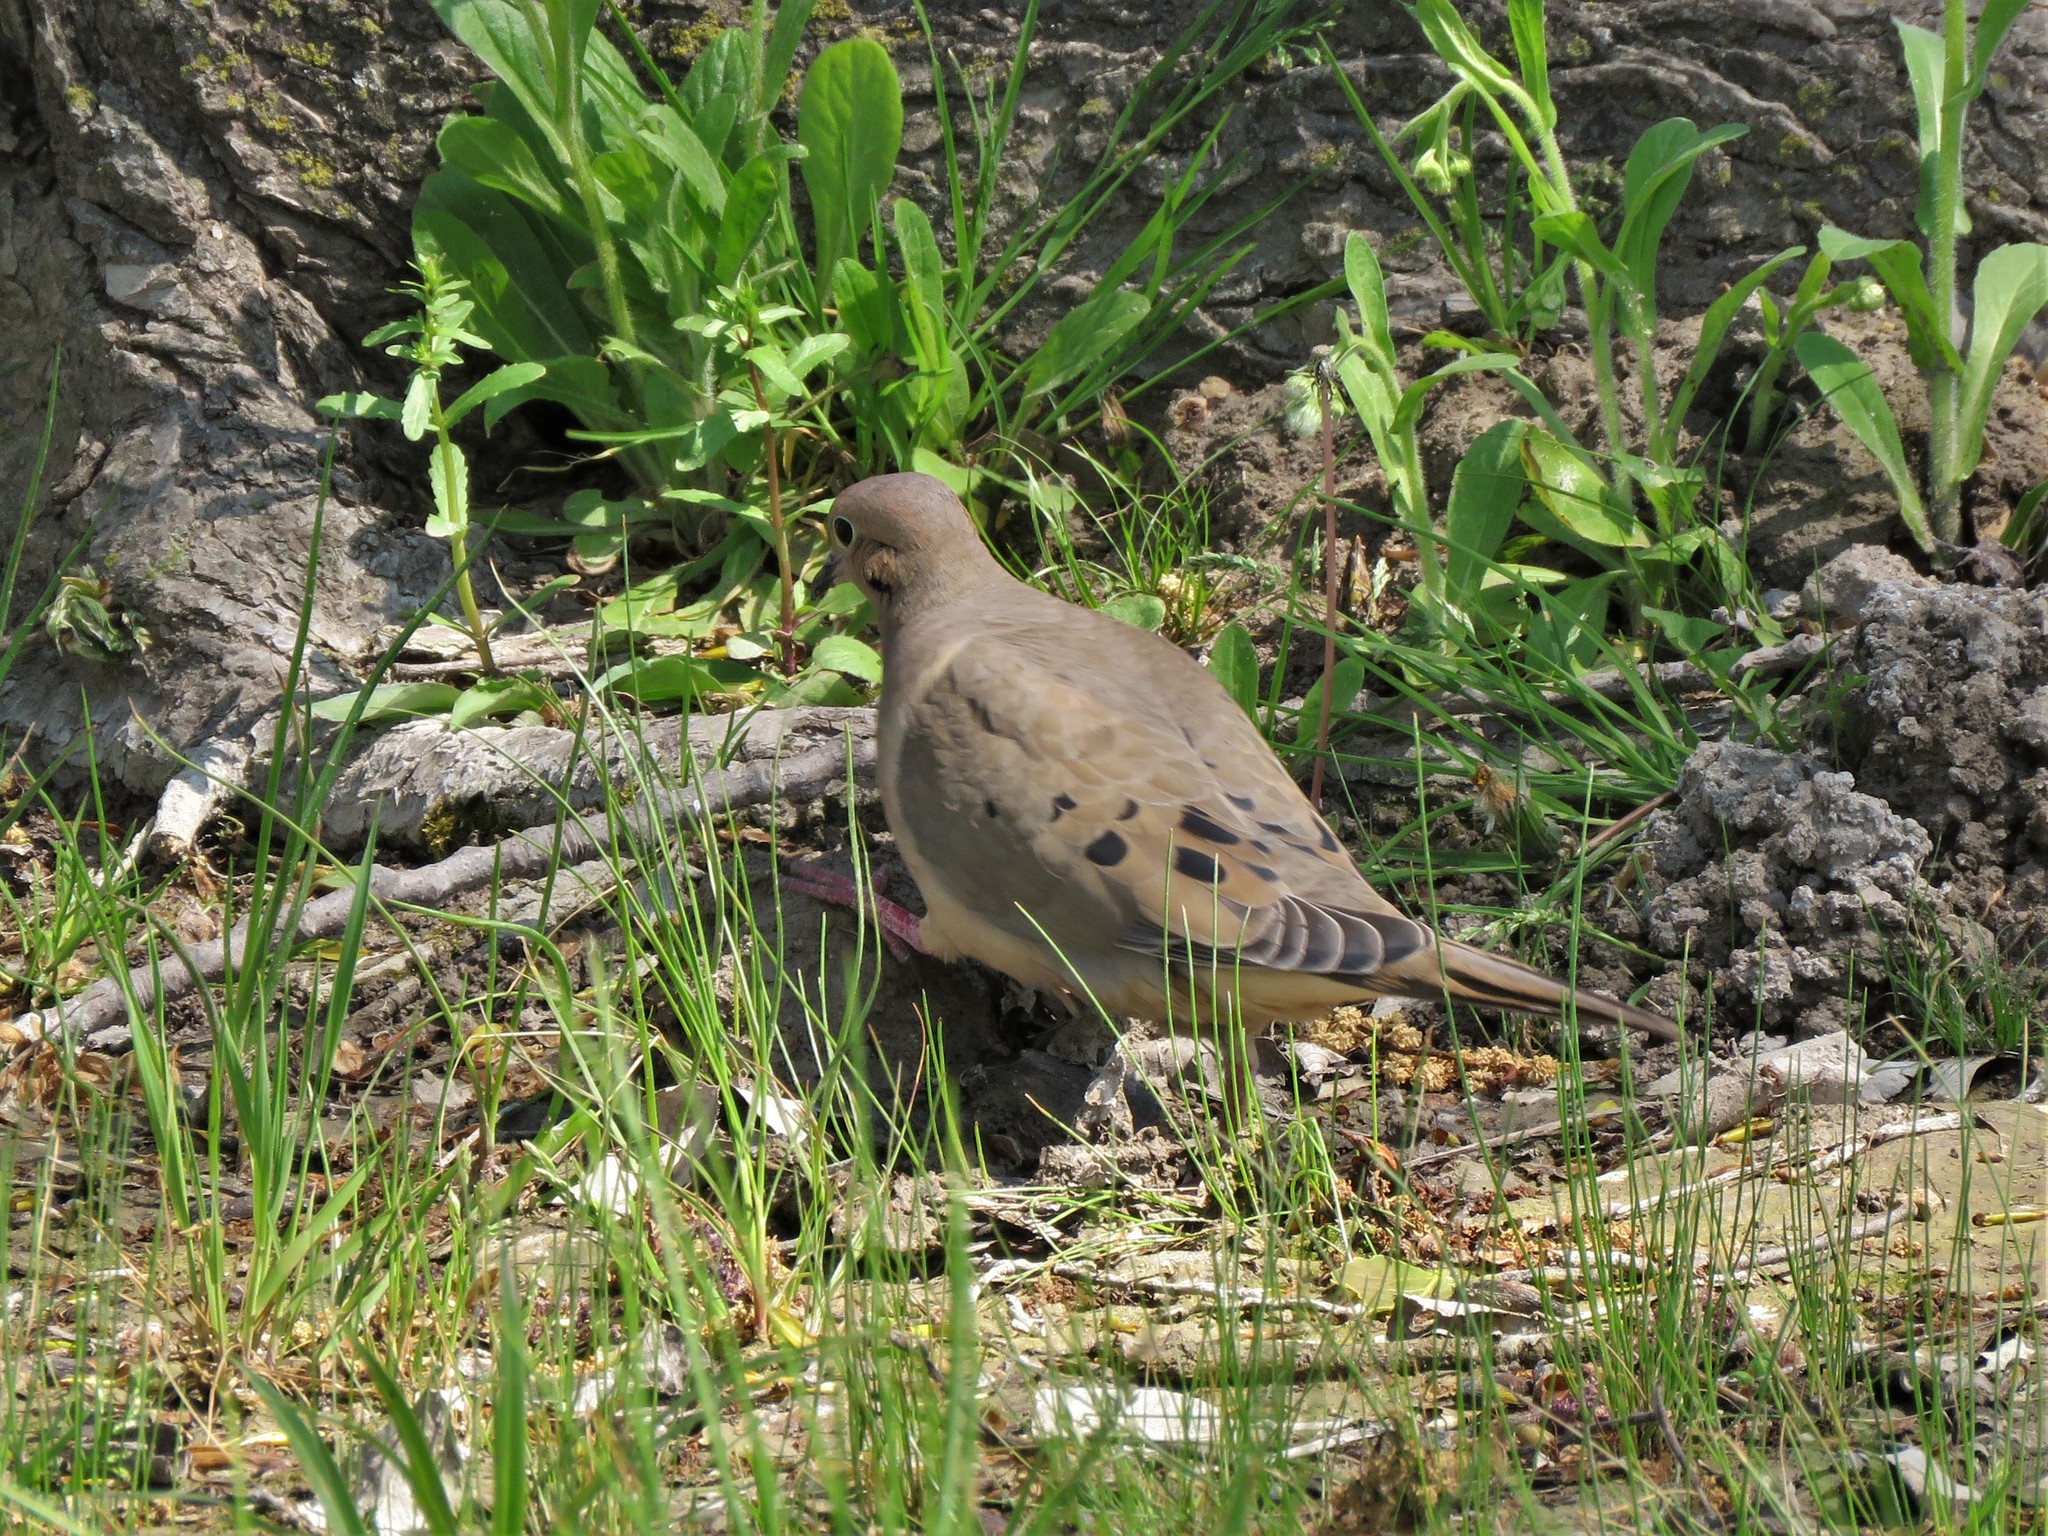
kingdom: Animalia
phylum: Chordata
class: Aves
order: Columbiformes
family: Columbidae
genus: Zenaida
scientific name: Zenaida macroura
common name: Mourning dove
